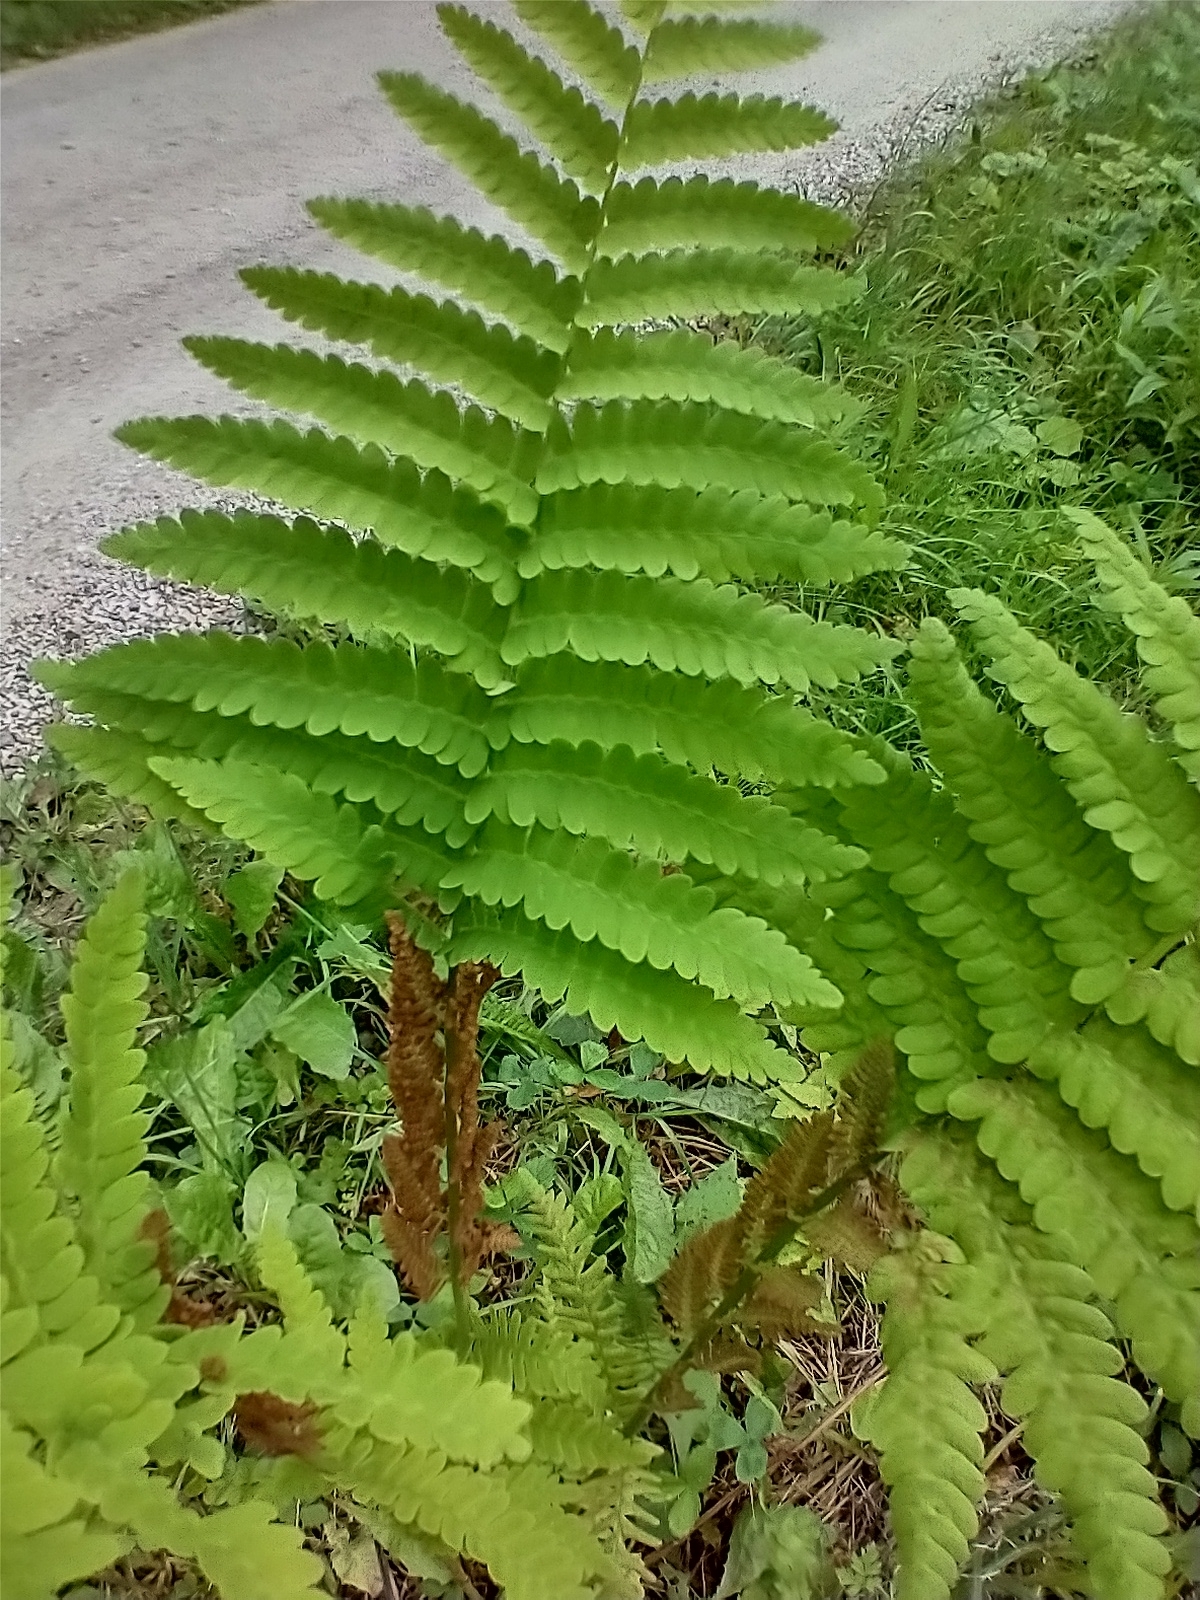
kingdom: Plantae
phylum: Tracheophyta
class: Polypodiopsida
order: Osmundales
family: Osmundaceae
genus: Claytosmunda
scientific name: Claytosmunda claytoniana
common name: Clayton's fern
